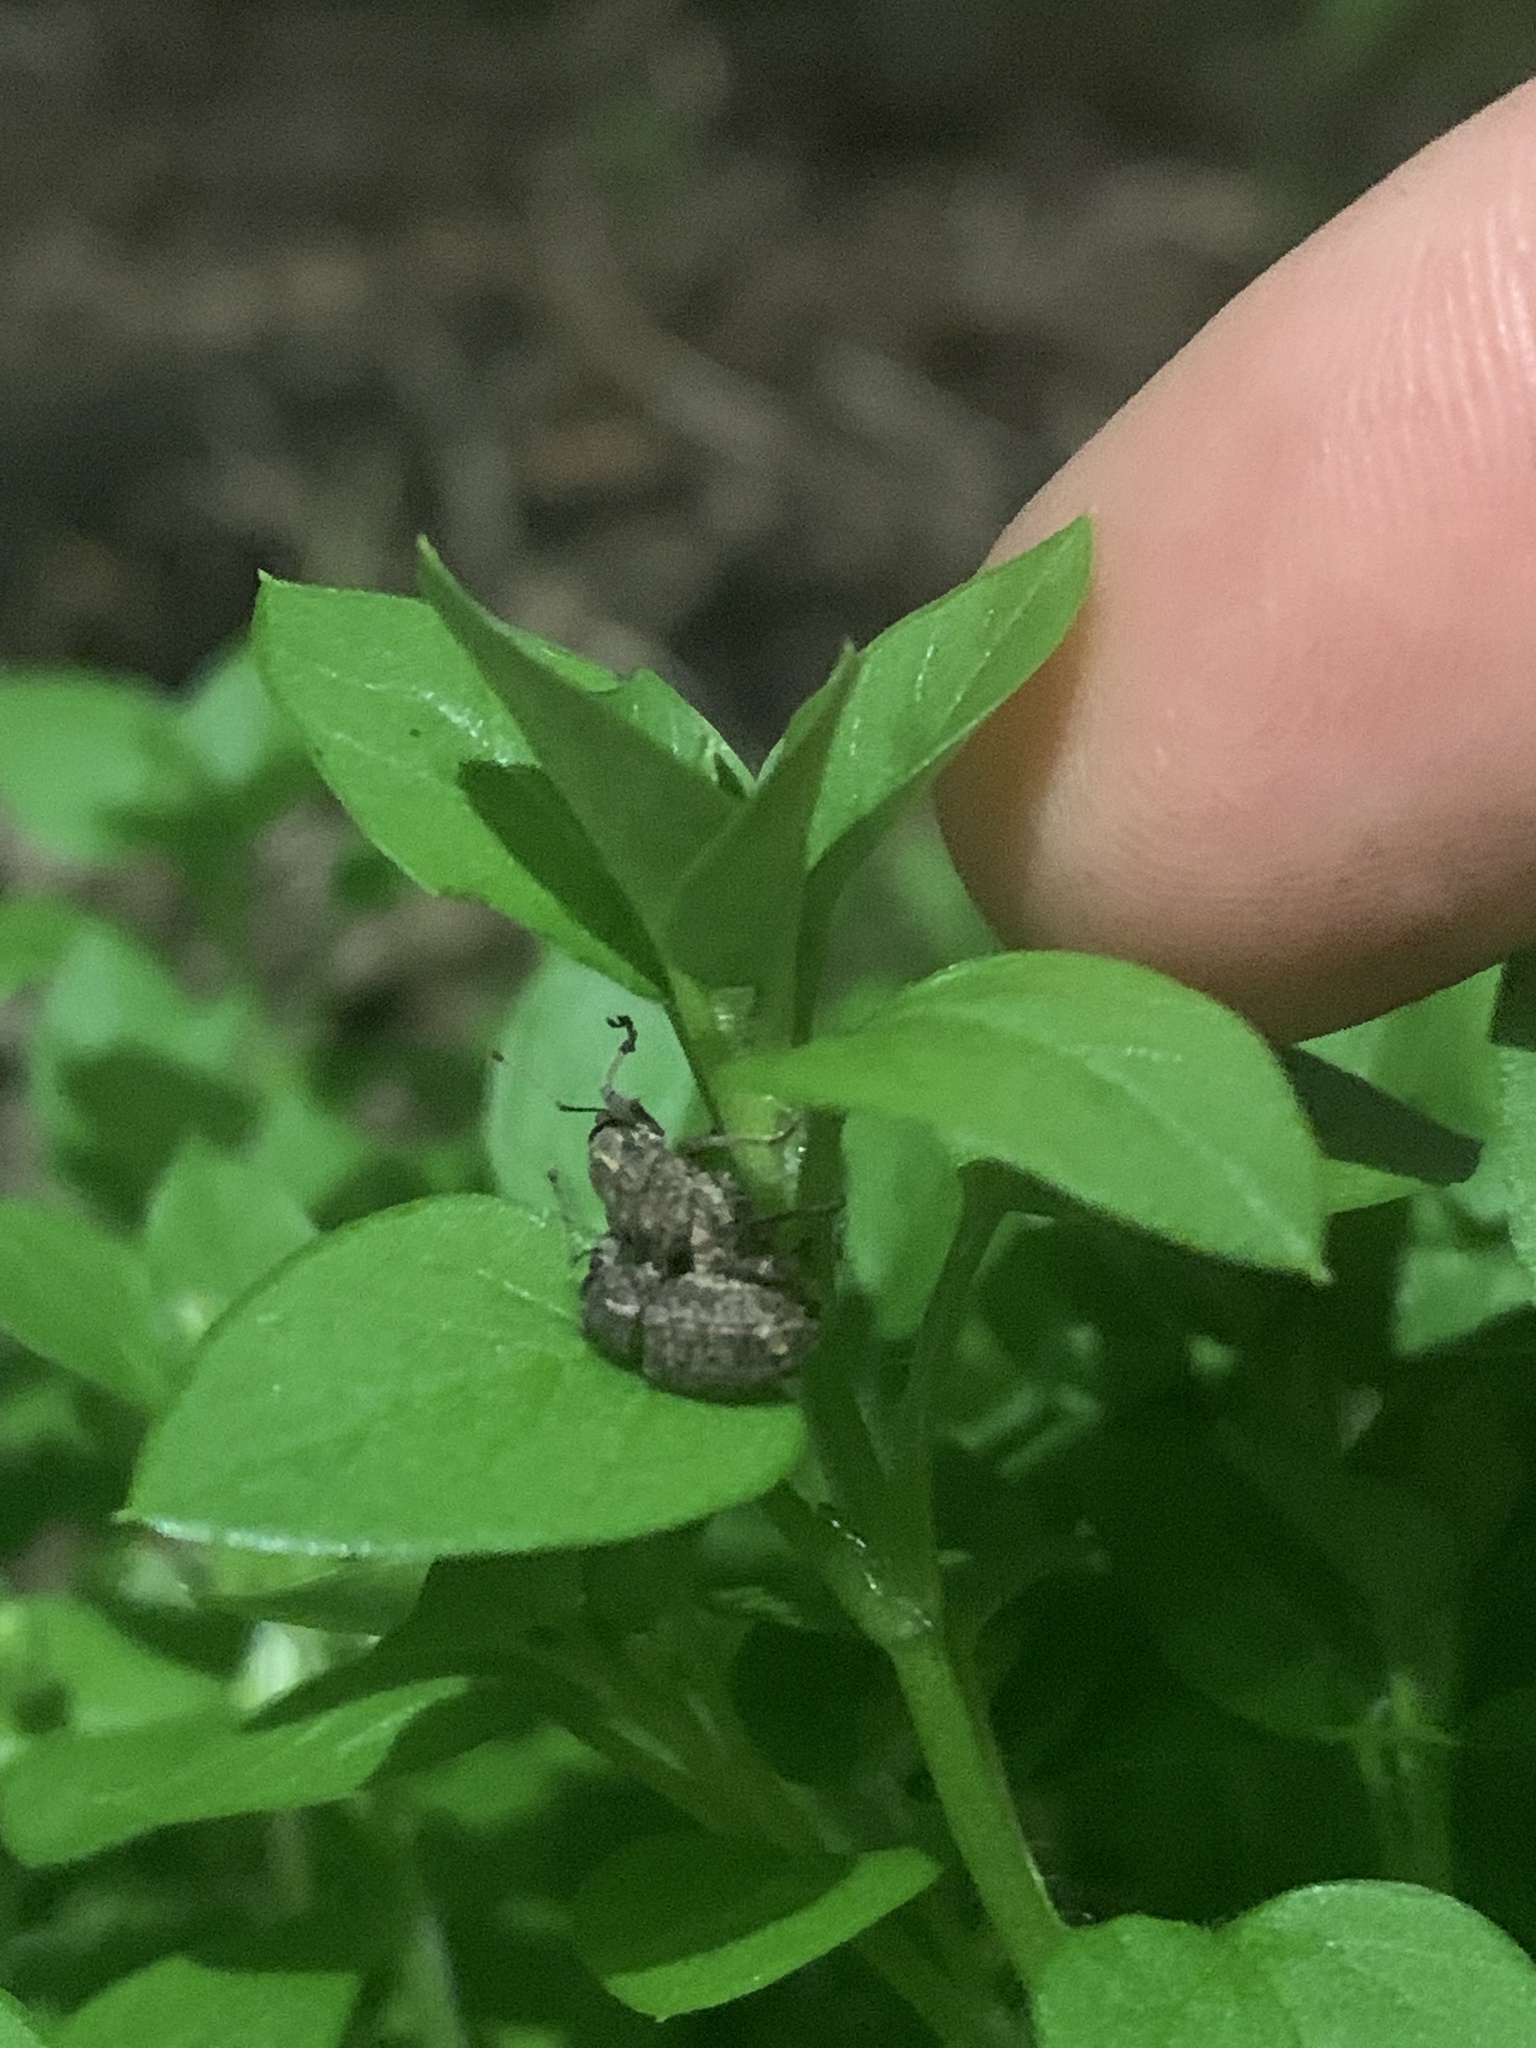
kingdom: Animalia
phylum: Arthropoda
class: Insecta
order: Coleoptera
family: Curculionidae
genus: Phlyctinus
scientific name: Phlyctinus callosus
